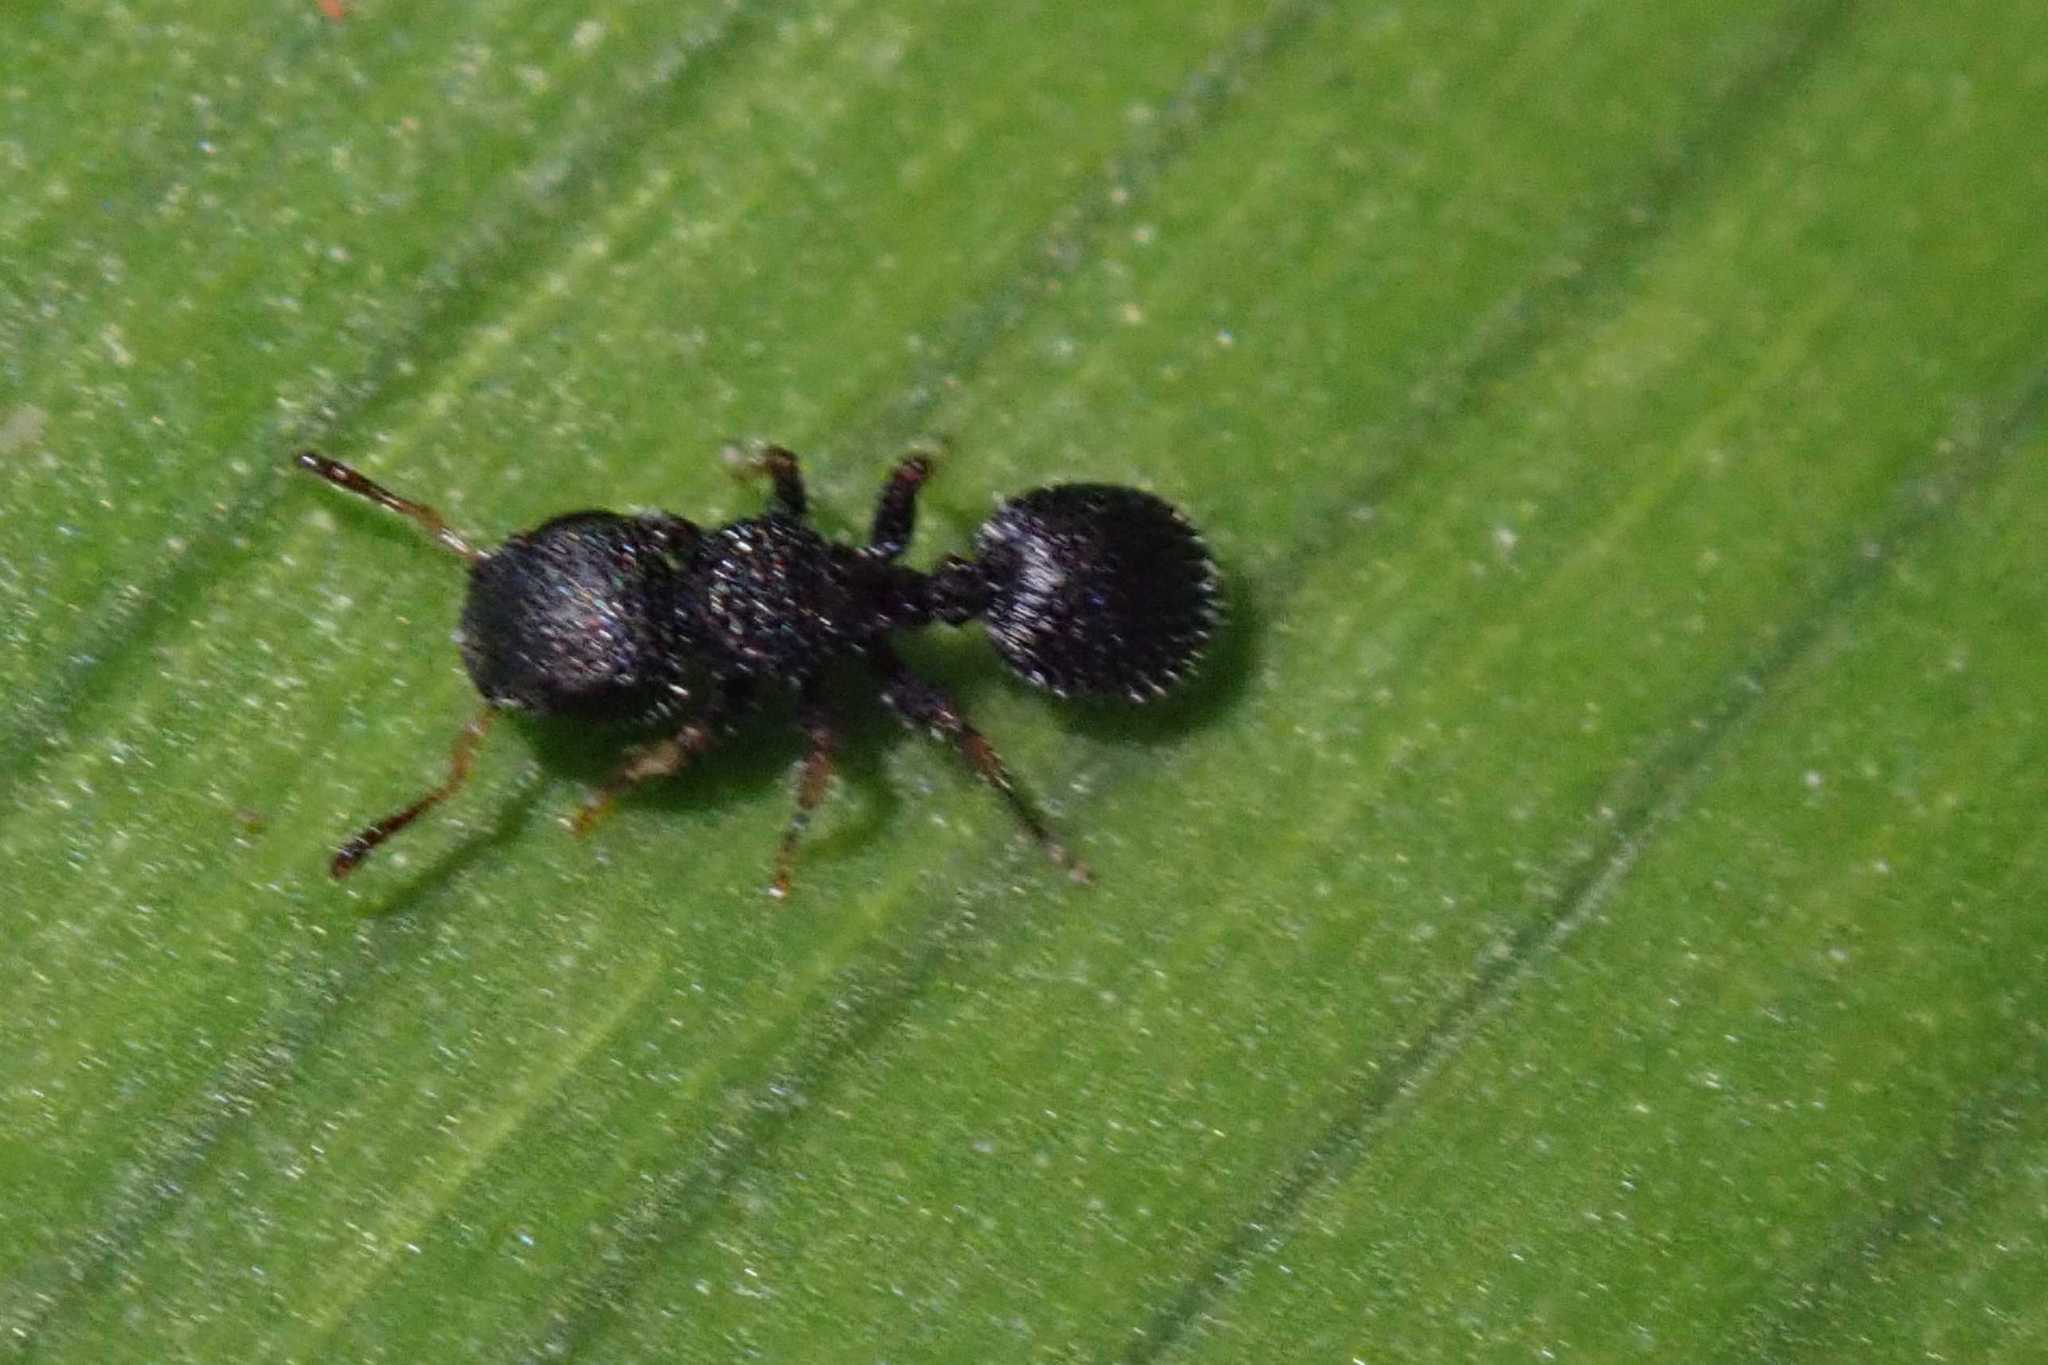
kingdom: Animalia
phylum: Arthropoda
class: Insecta
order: Hymenoptera
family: Formicidae
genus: Cataulacus
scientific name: Cataulacus wissmannii
